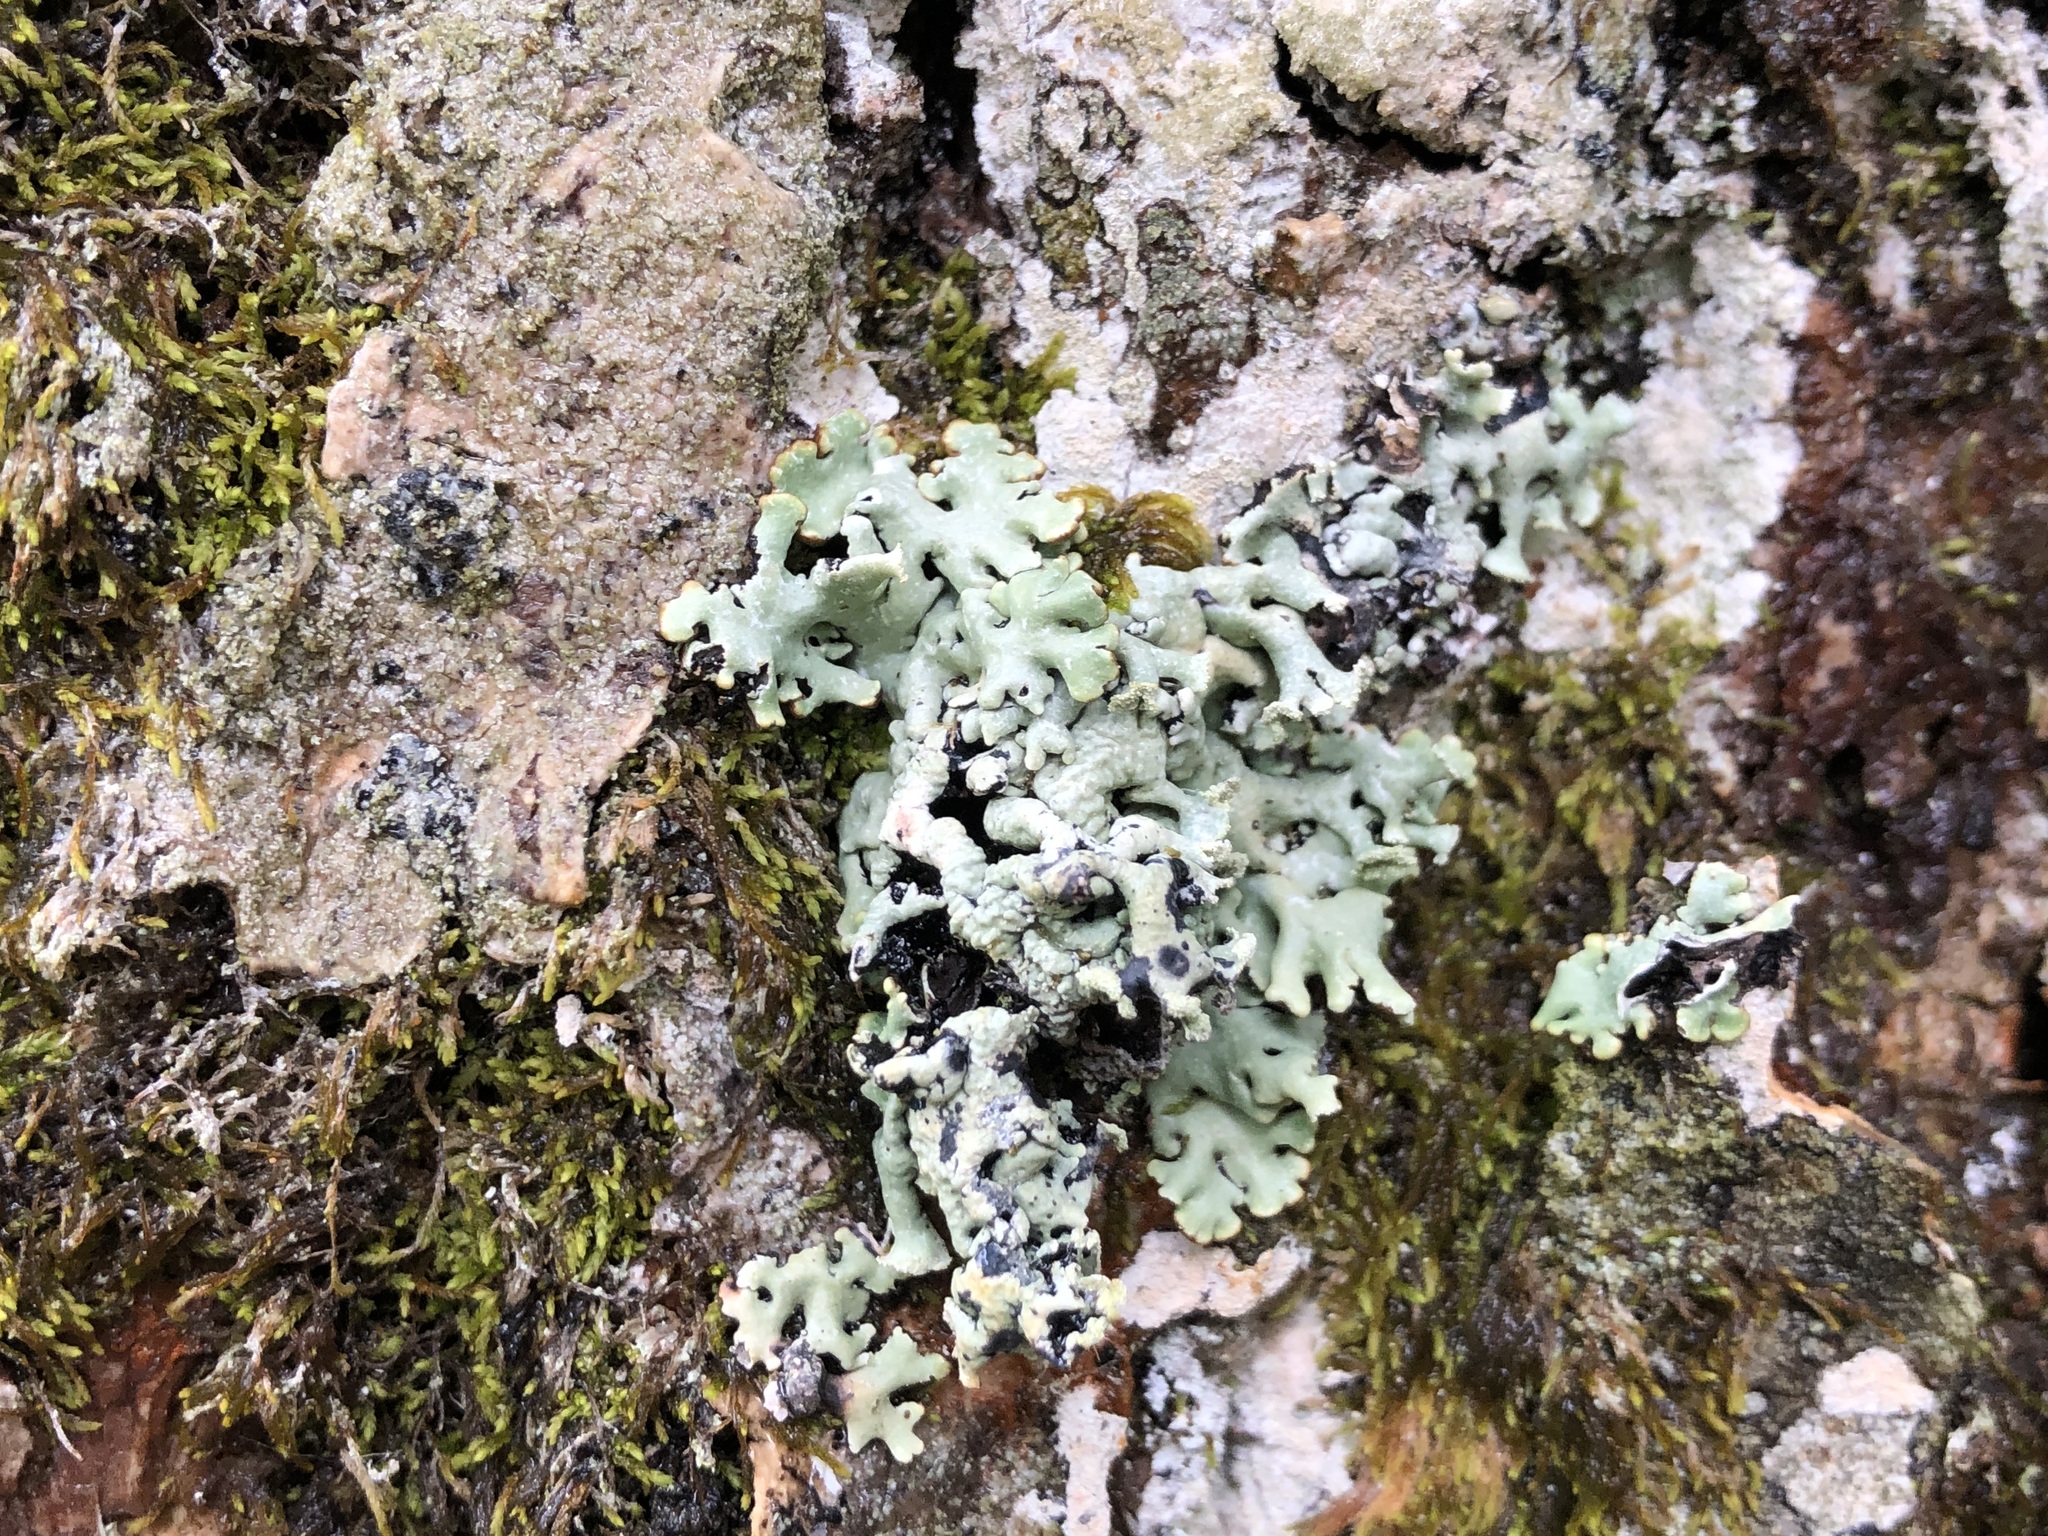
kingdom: Fungi
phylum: Ascomycota
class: Lecanoromycetes
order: Lecanorales
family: Parmeliaceae
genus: Hypogymnia
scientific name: Hypogymnia physodes
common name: Dark crottle
